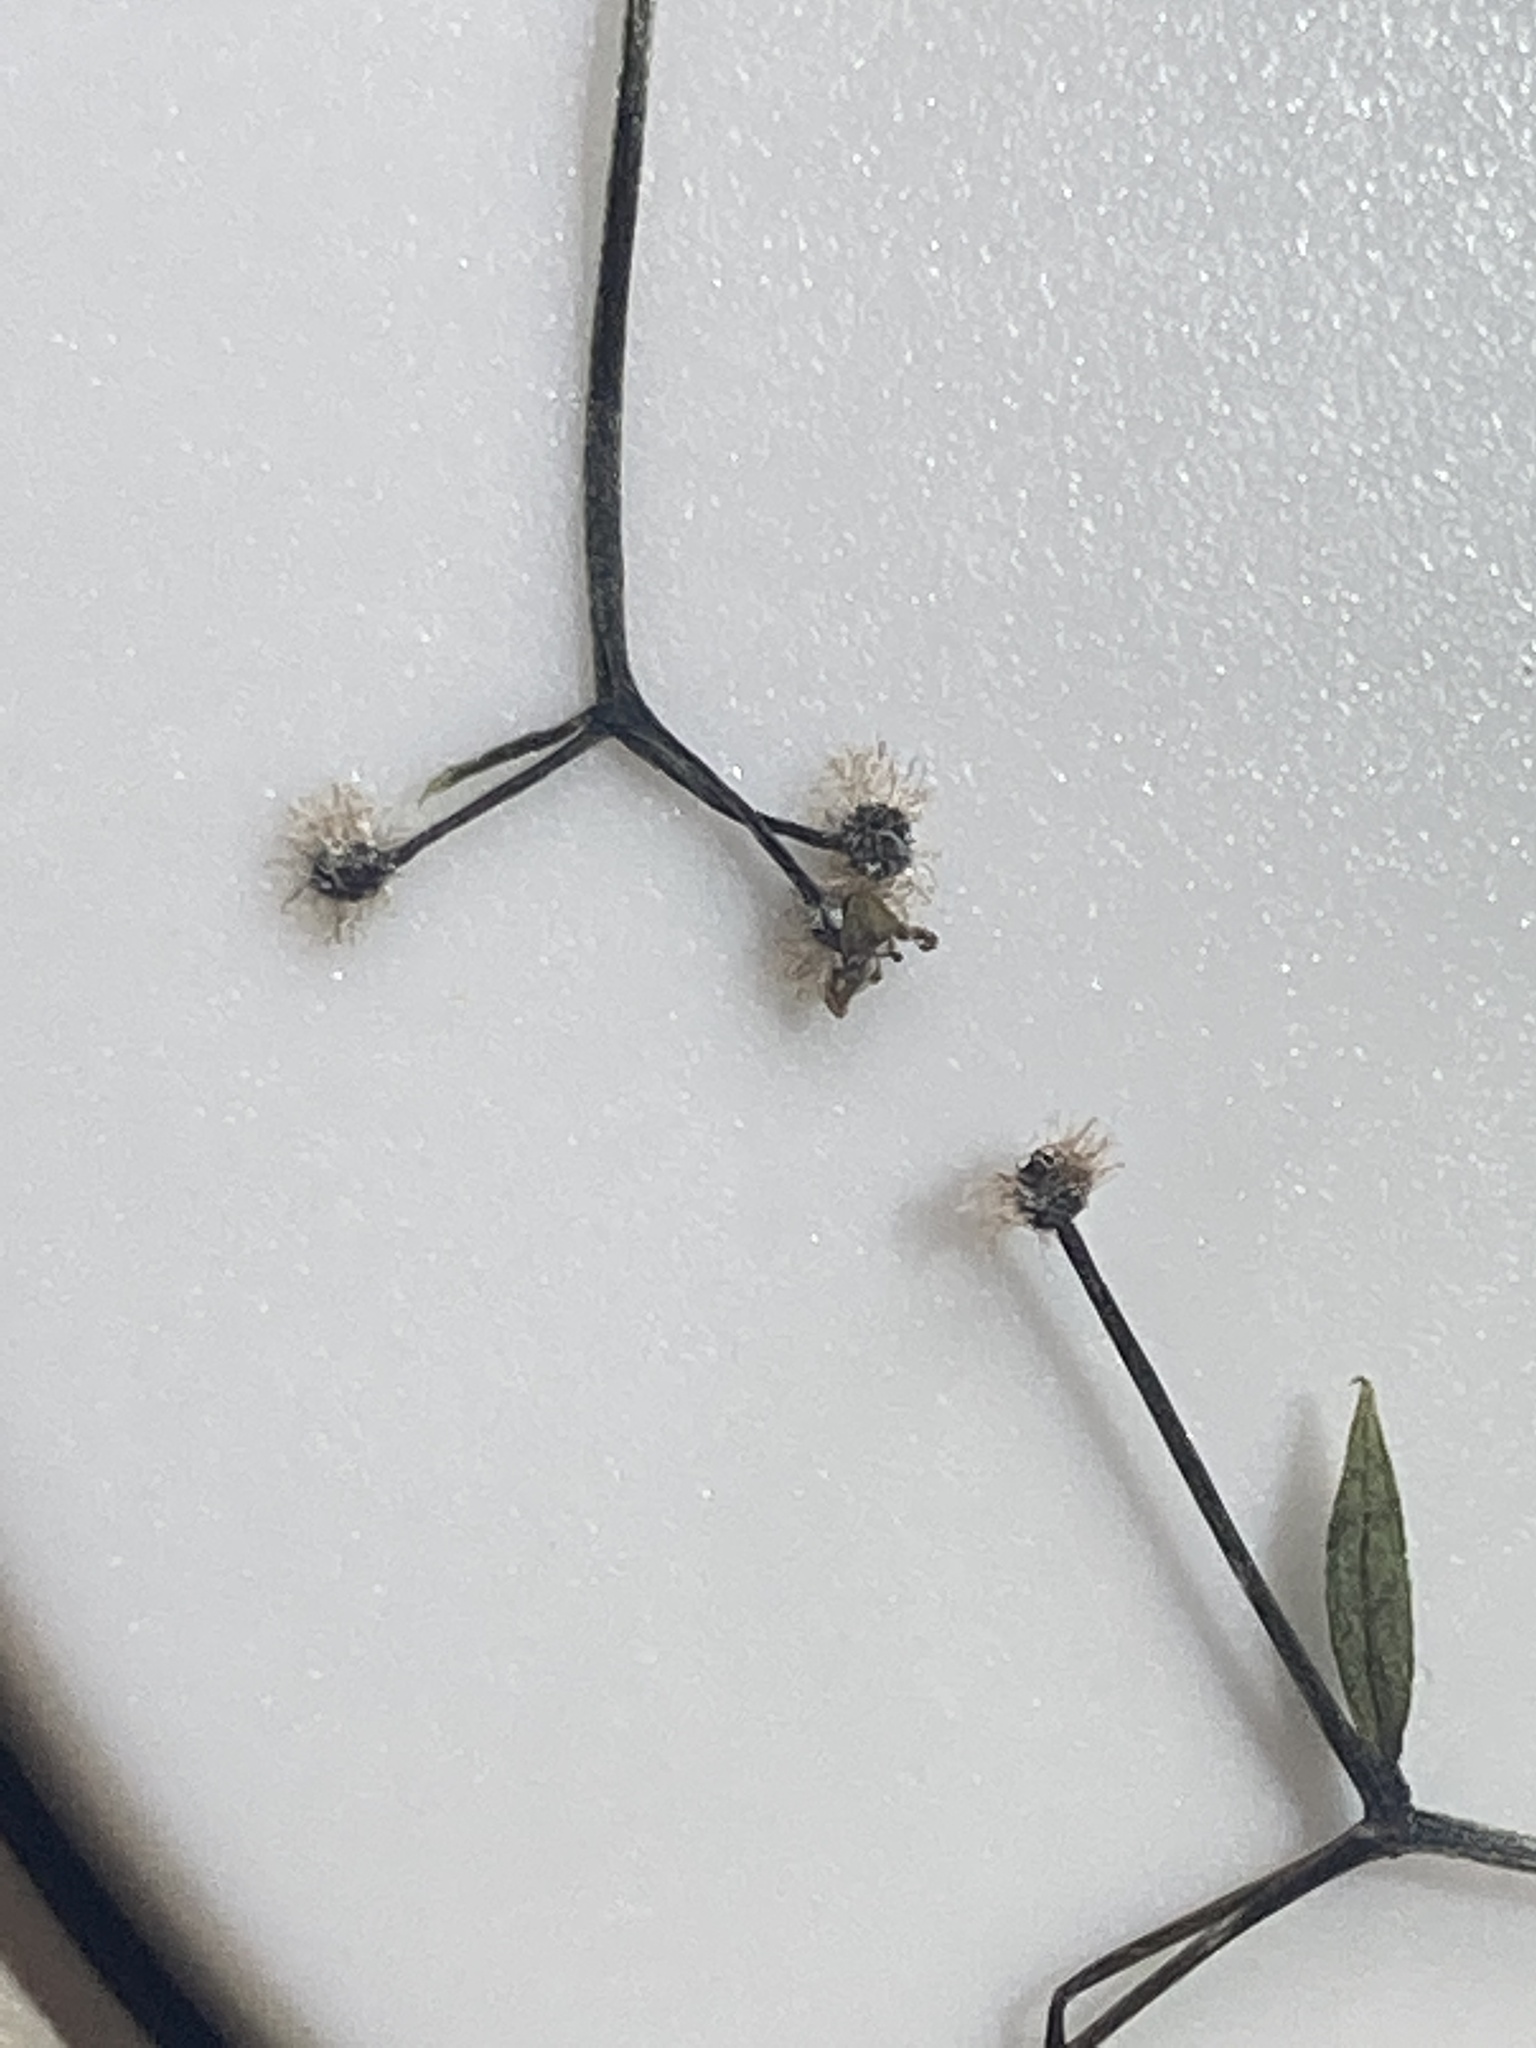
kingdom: Plantae
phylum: Tracheophyta
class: Magnoliopsida
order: Gentianales
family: Rubiaceae
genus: Galium
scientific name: Galium triflorum
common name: Fragrant bedstraw
